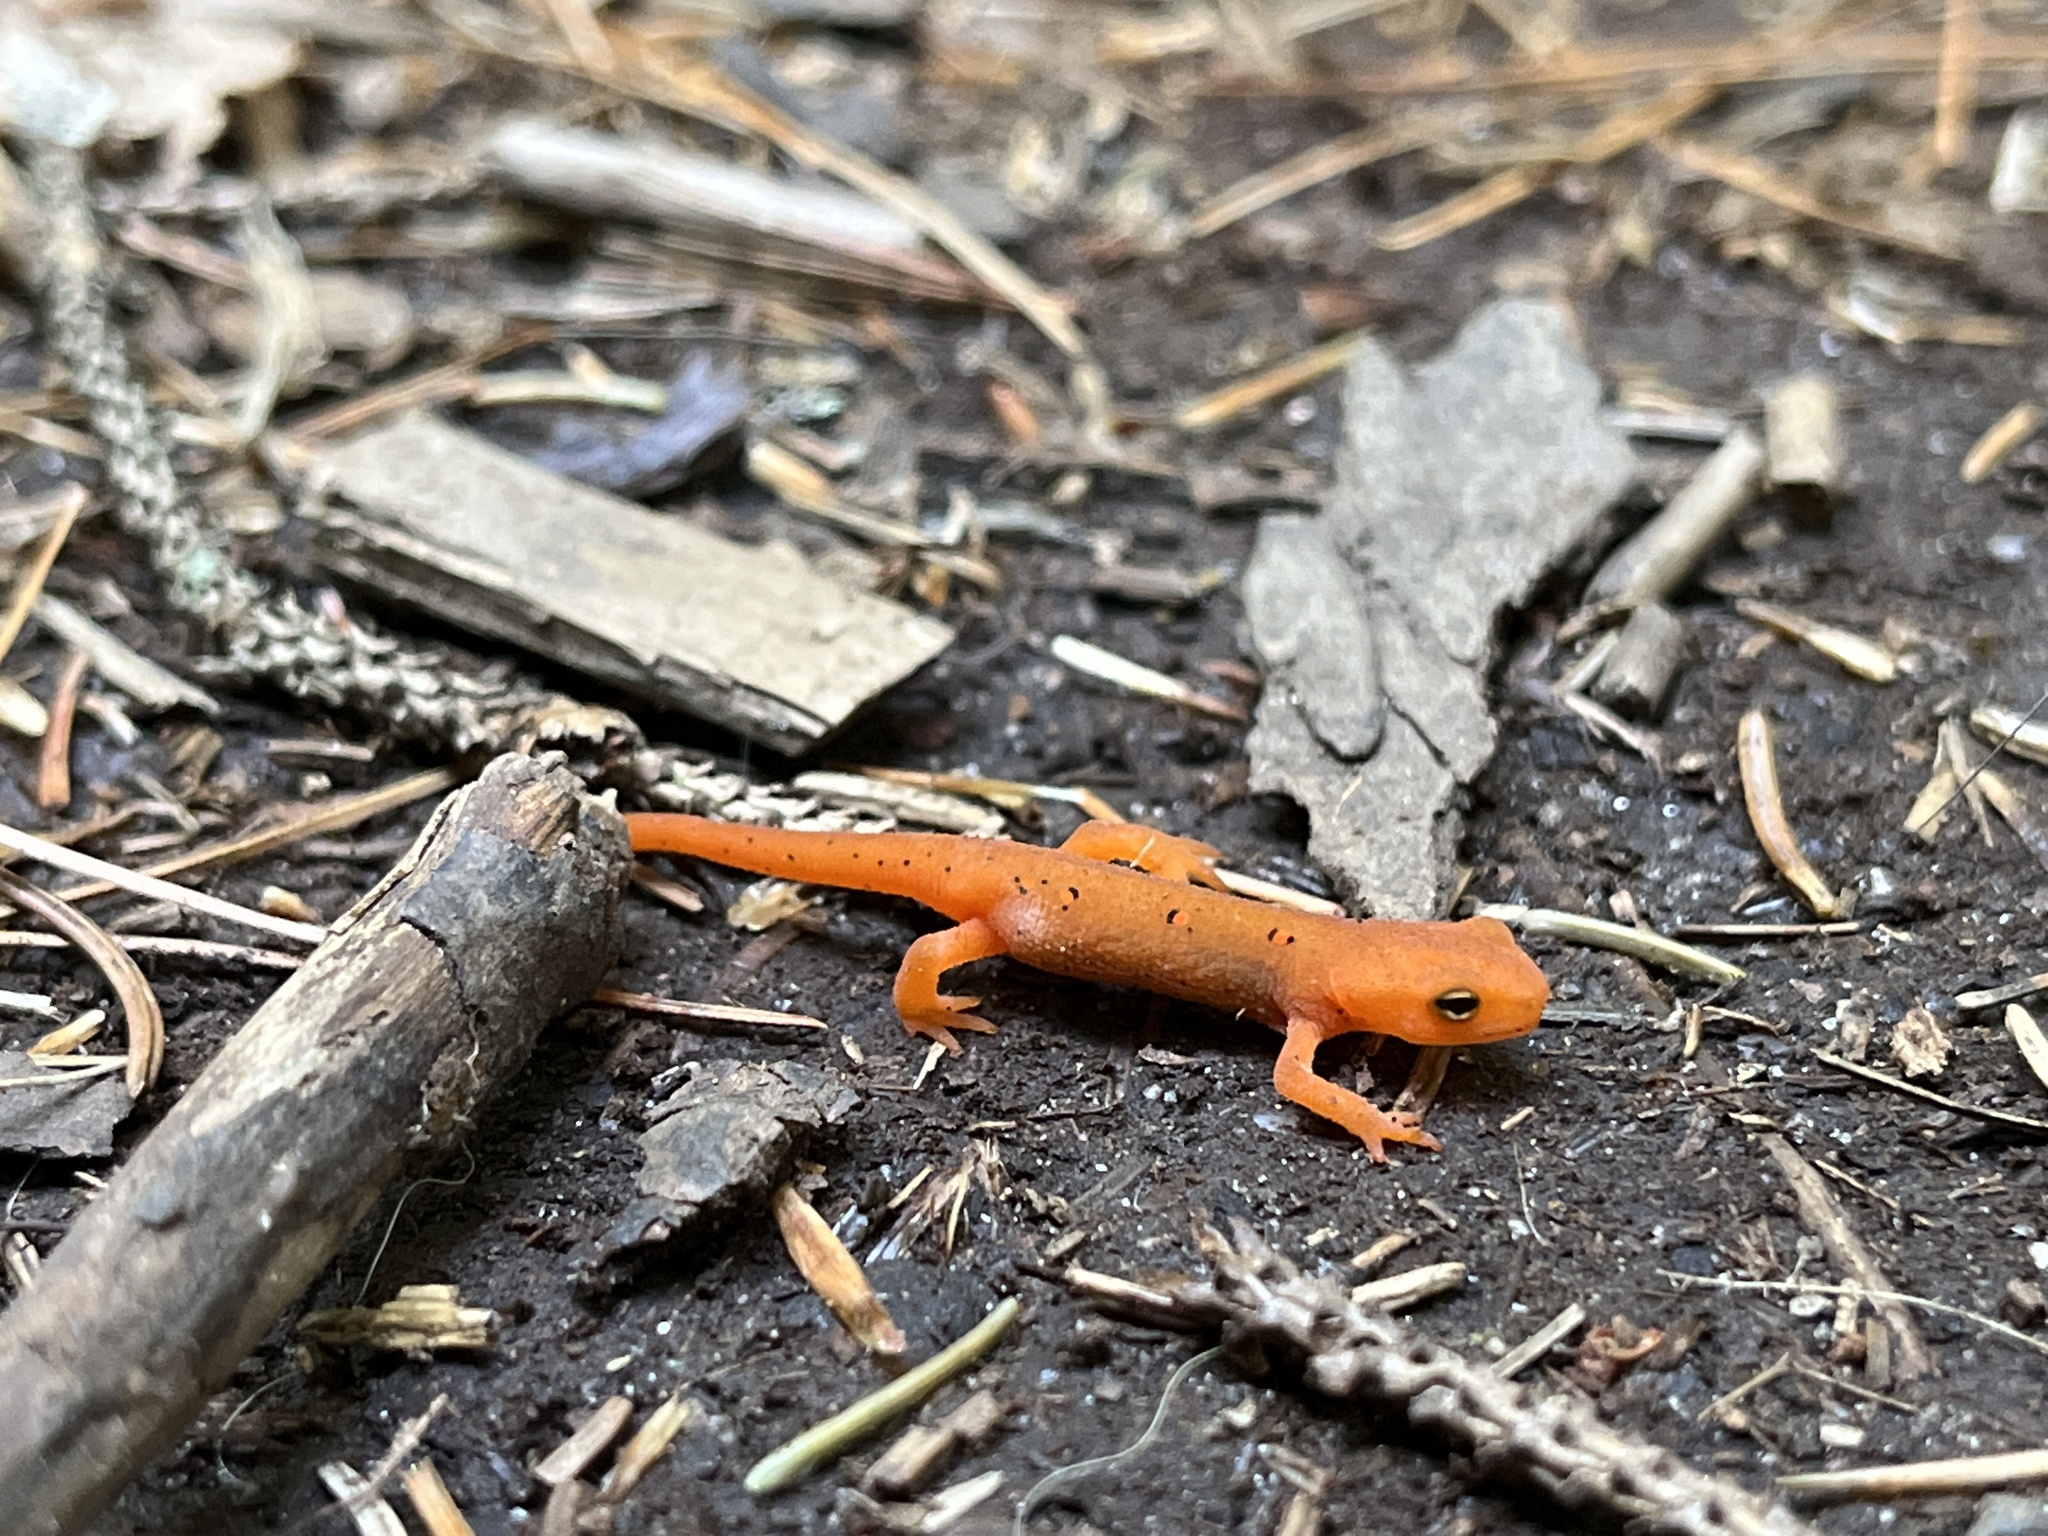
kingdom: Animalia
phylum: Chordata
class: Amphibia
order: Caudata
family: Salamandridae
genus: Notophthalmus
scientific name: Notophthalmus viridescens
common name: Eastern newt
